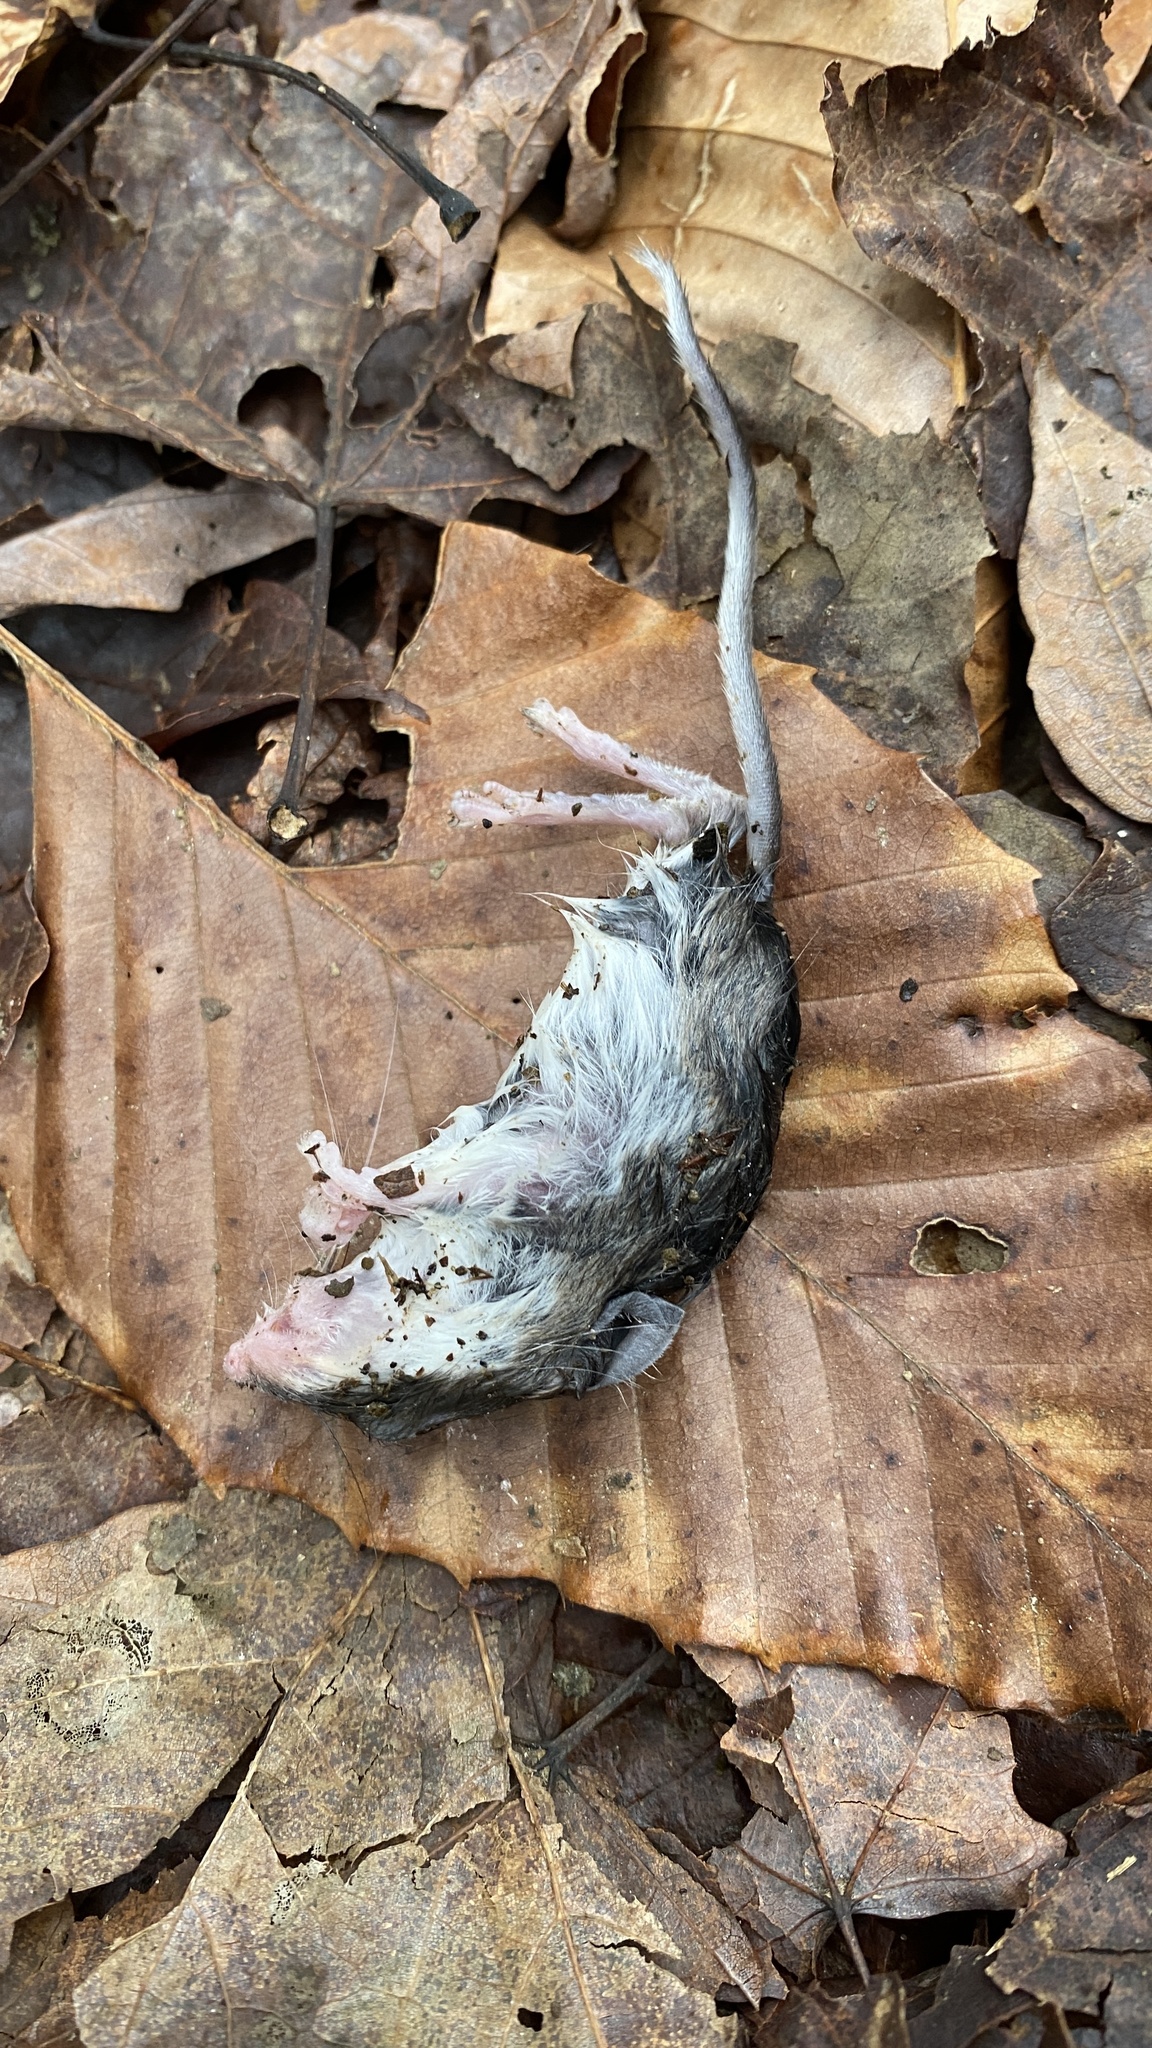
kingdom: Animalia
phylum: Chordata
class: Mammalia
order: Rodentia
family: Cricetidae
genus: Peromyscus
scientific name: Peromyscus
